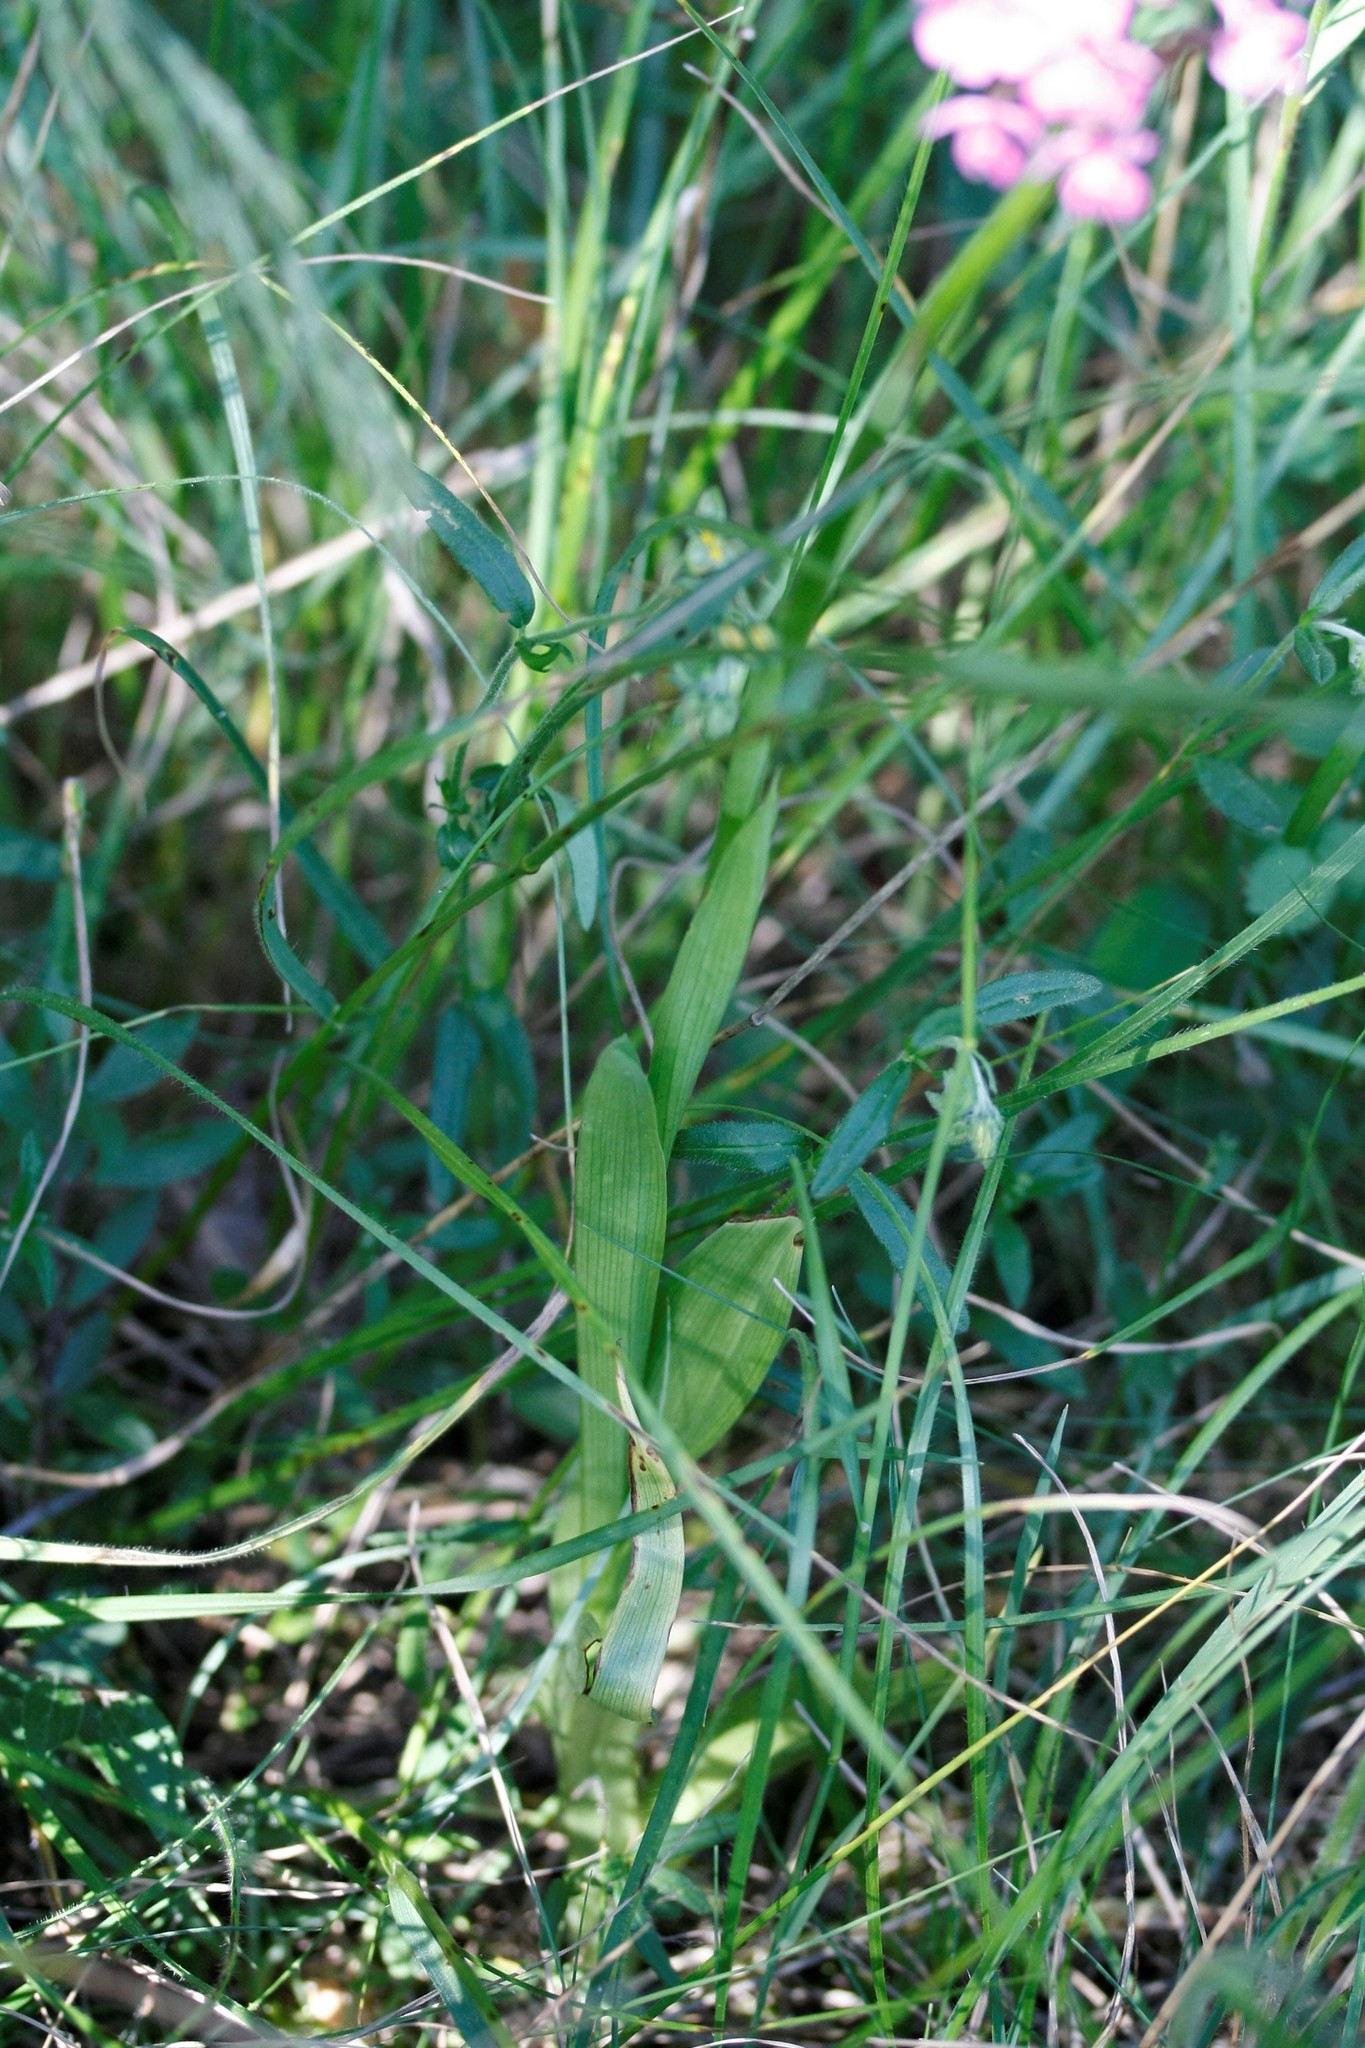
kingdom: Plantae
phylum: Tracheophyta
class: Liliopsida
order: Asparagales
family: Orchidaceae
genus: Anacamptis
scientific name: Anacamptis pyramidalis
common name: Pyramidal orchid
